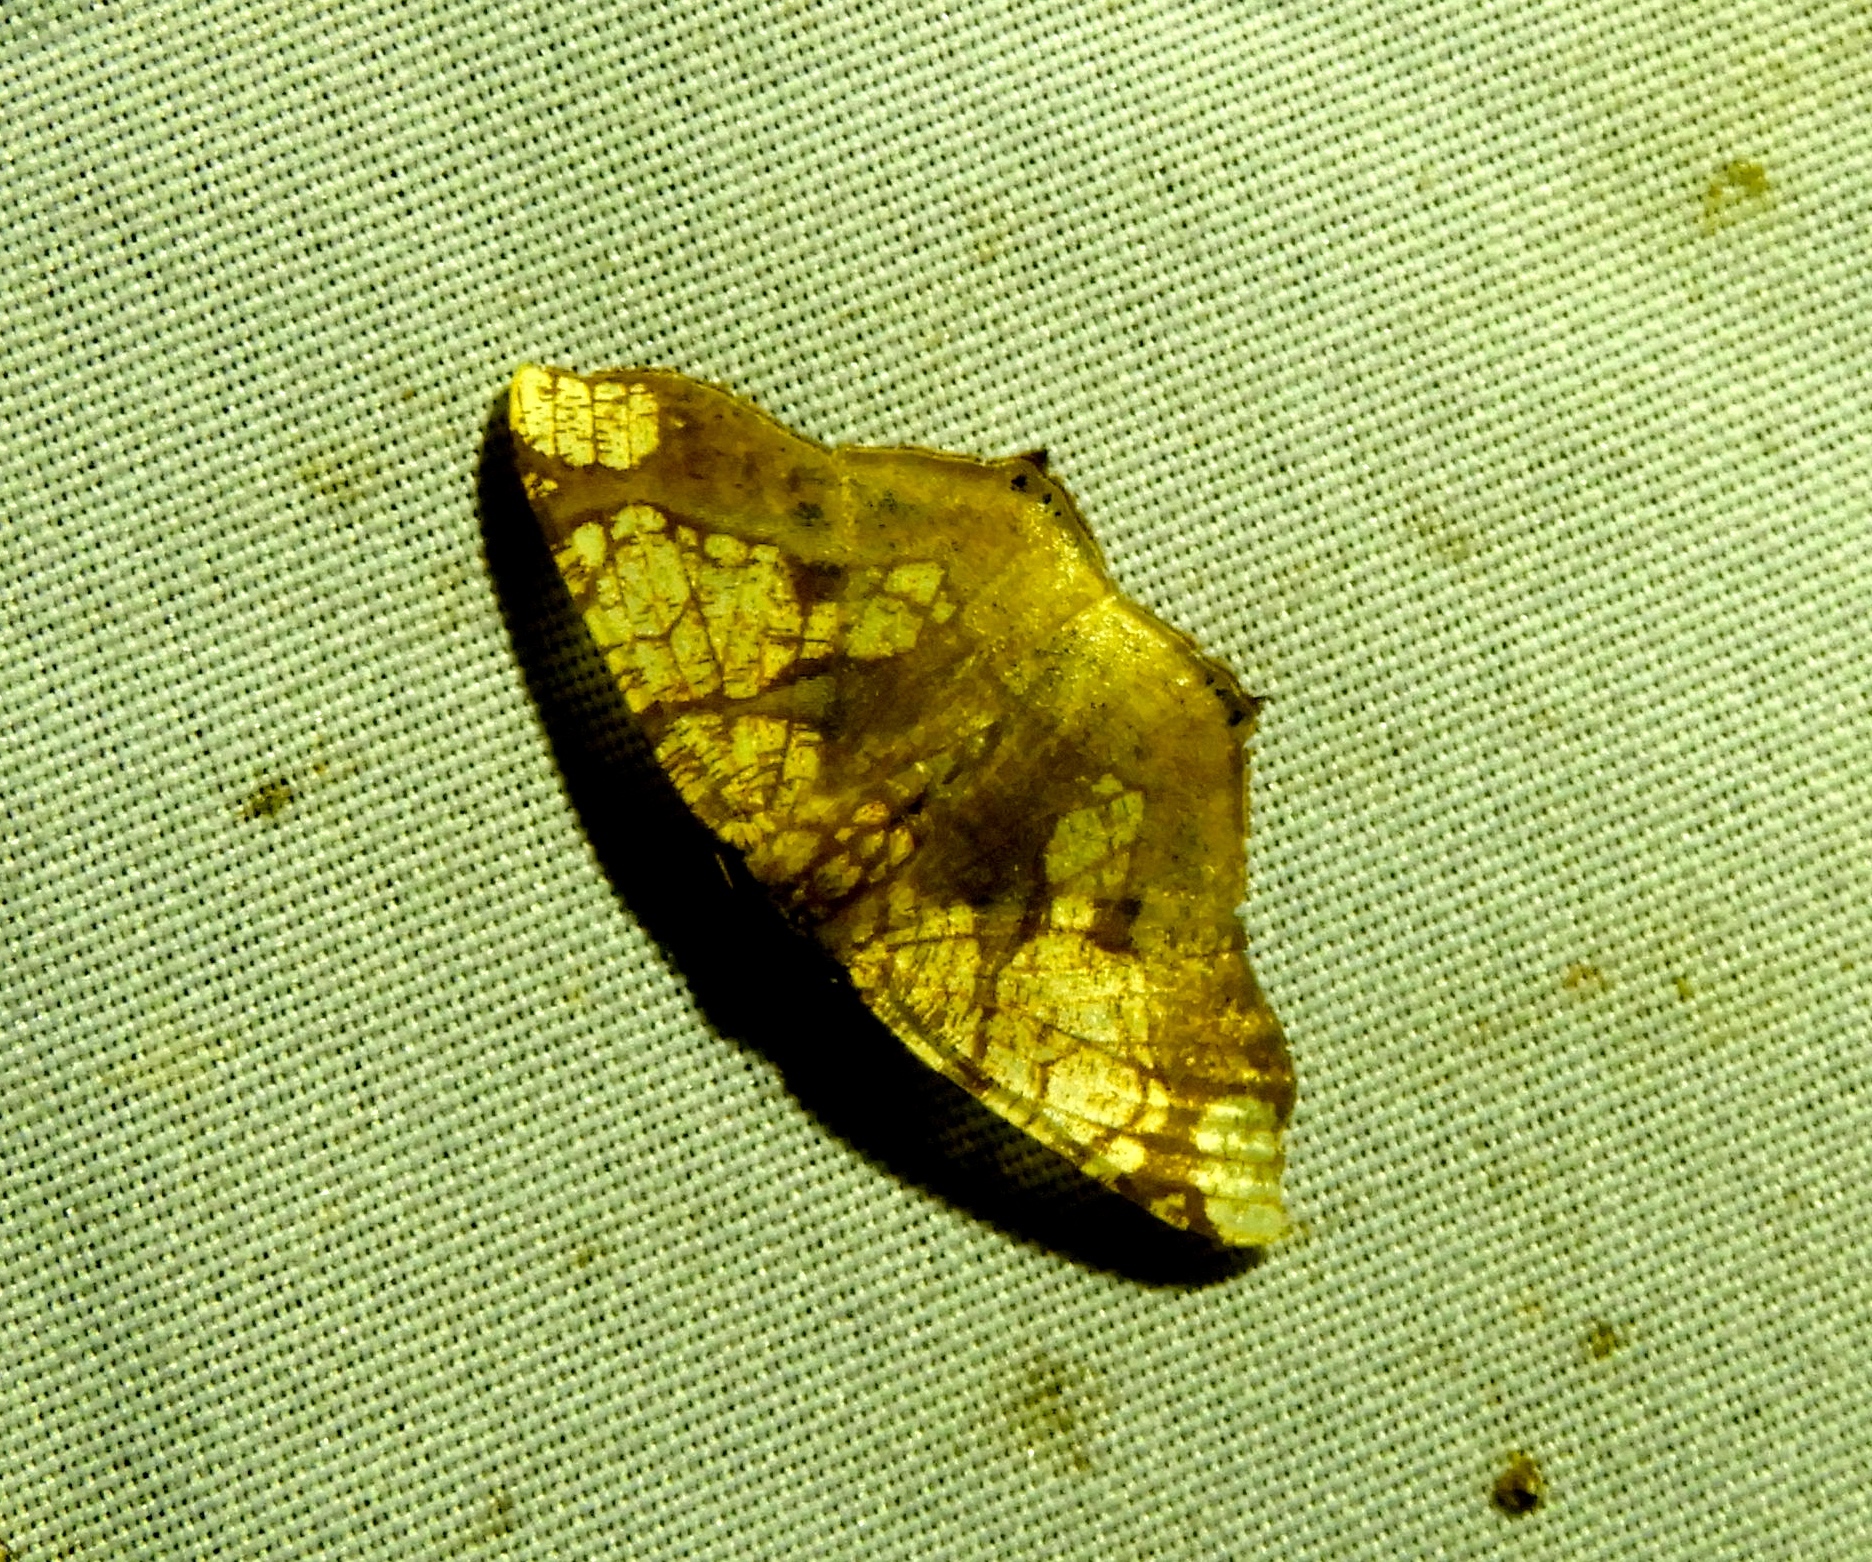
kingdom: Animalia
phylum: Arthropoda
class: Insecta
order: Lepidoptera
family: Geometridae
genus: Nematocampa
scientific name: Nematocampa completa
